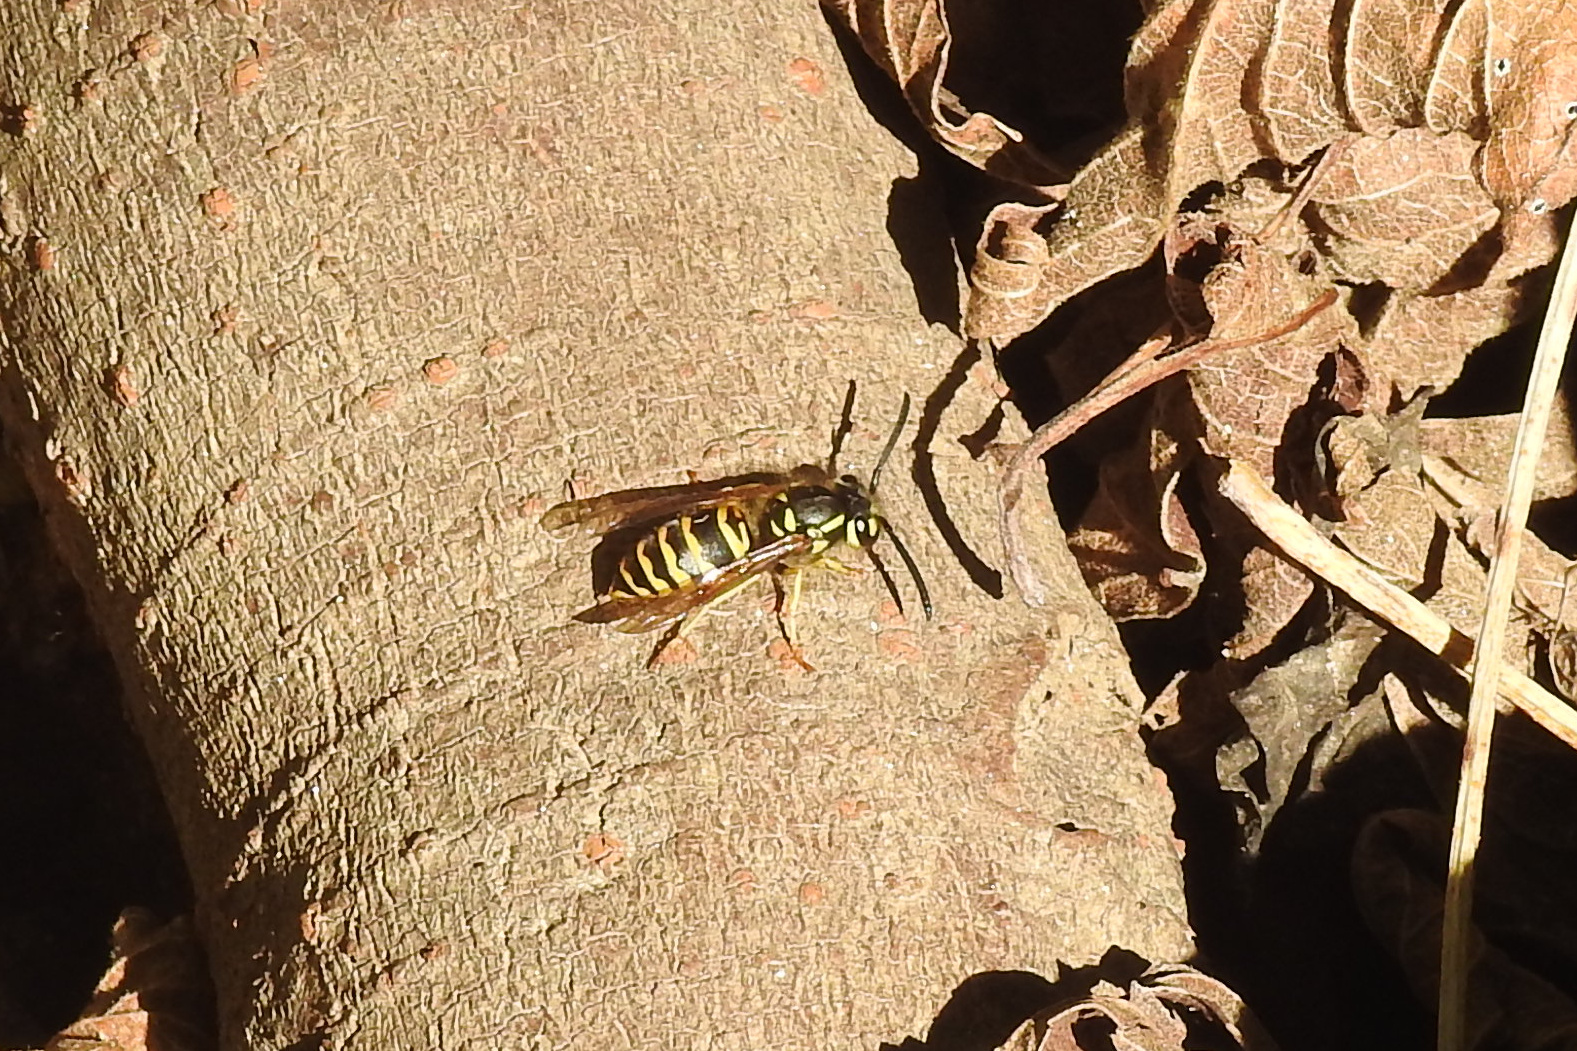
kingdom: Animalia
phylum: Arthropoda
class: Insecta
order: Hymenoptera
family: Vespidae
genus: Vespula
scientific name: Vespula maculifrons
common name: Eastern yellowjacket
